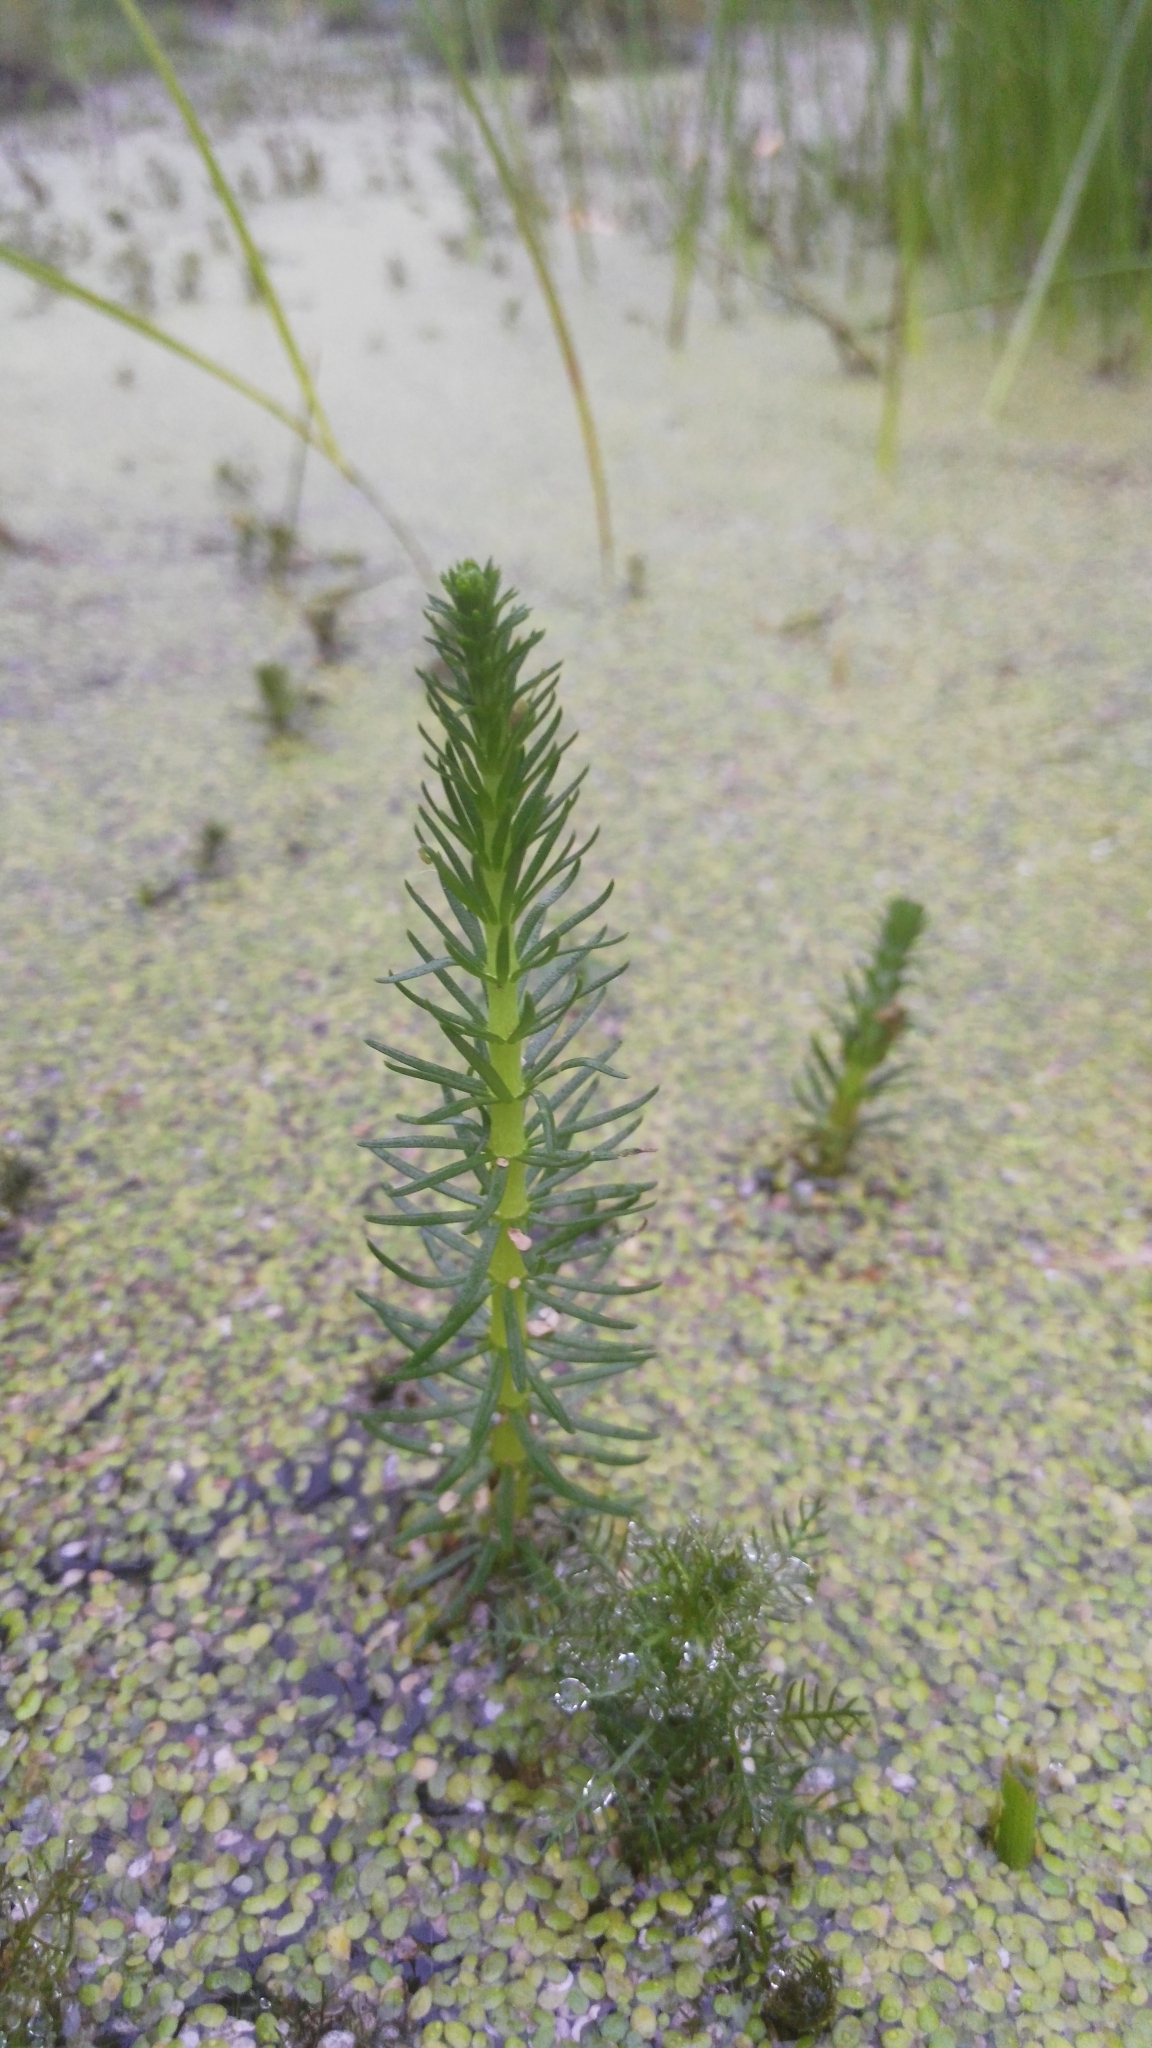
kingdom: Plantae
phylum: Tracheophyta
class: Magnoliopsida
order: Lamiales
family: Plantaginaceae
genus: Hippuris
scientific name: Hippuris vulgaris
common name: Mare's-tail
